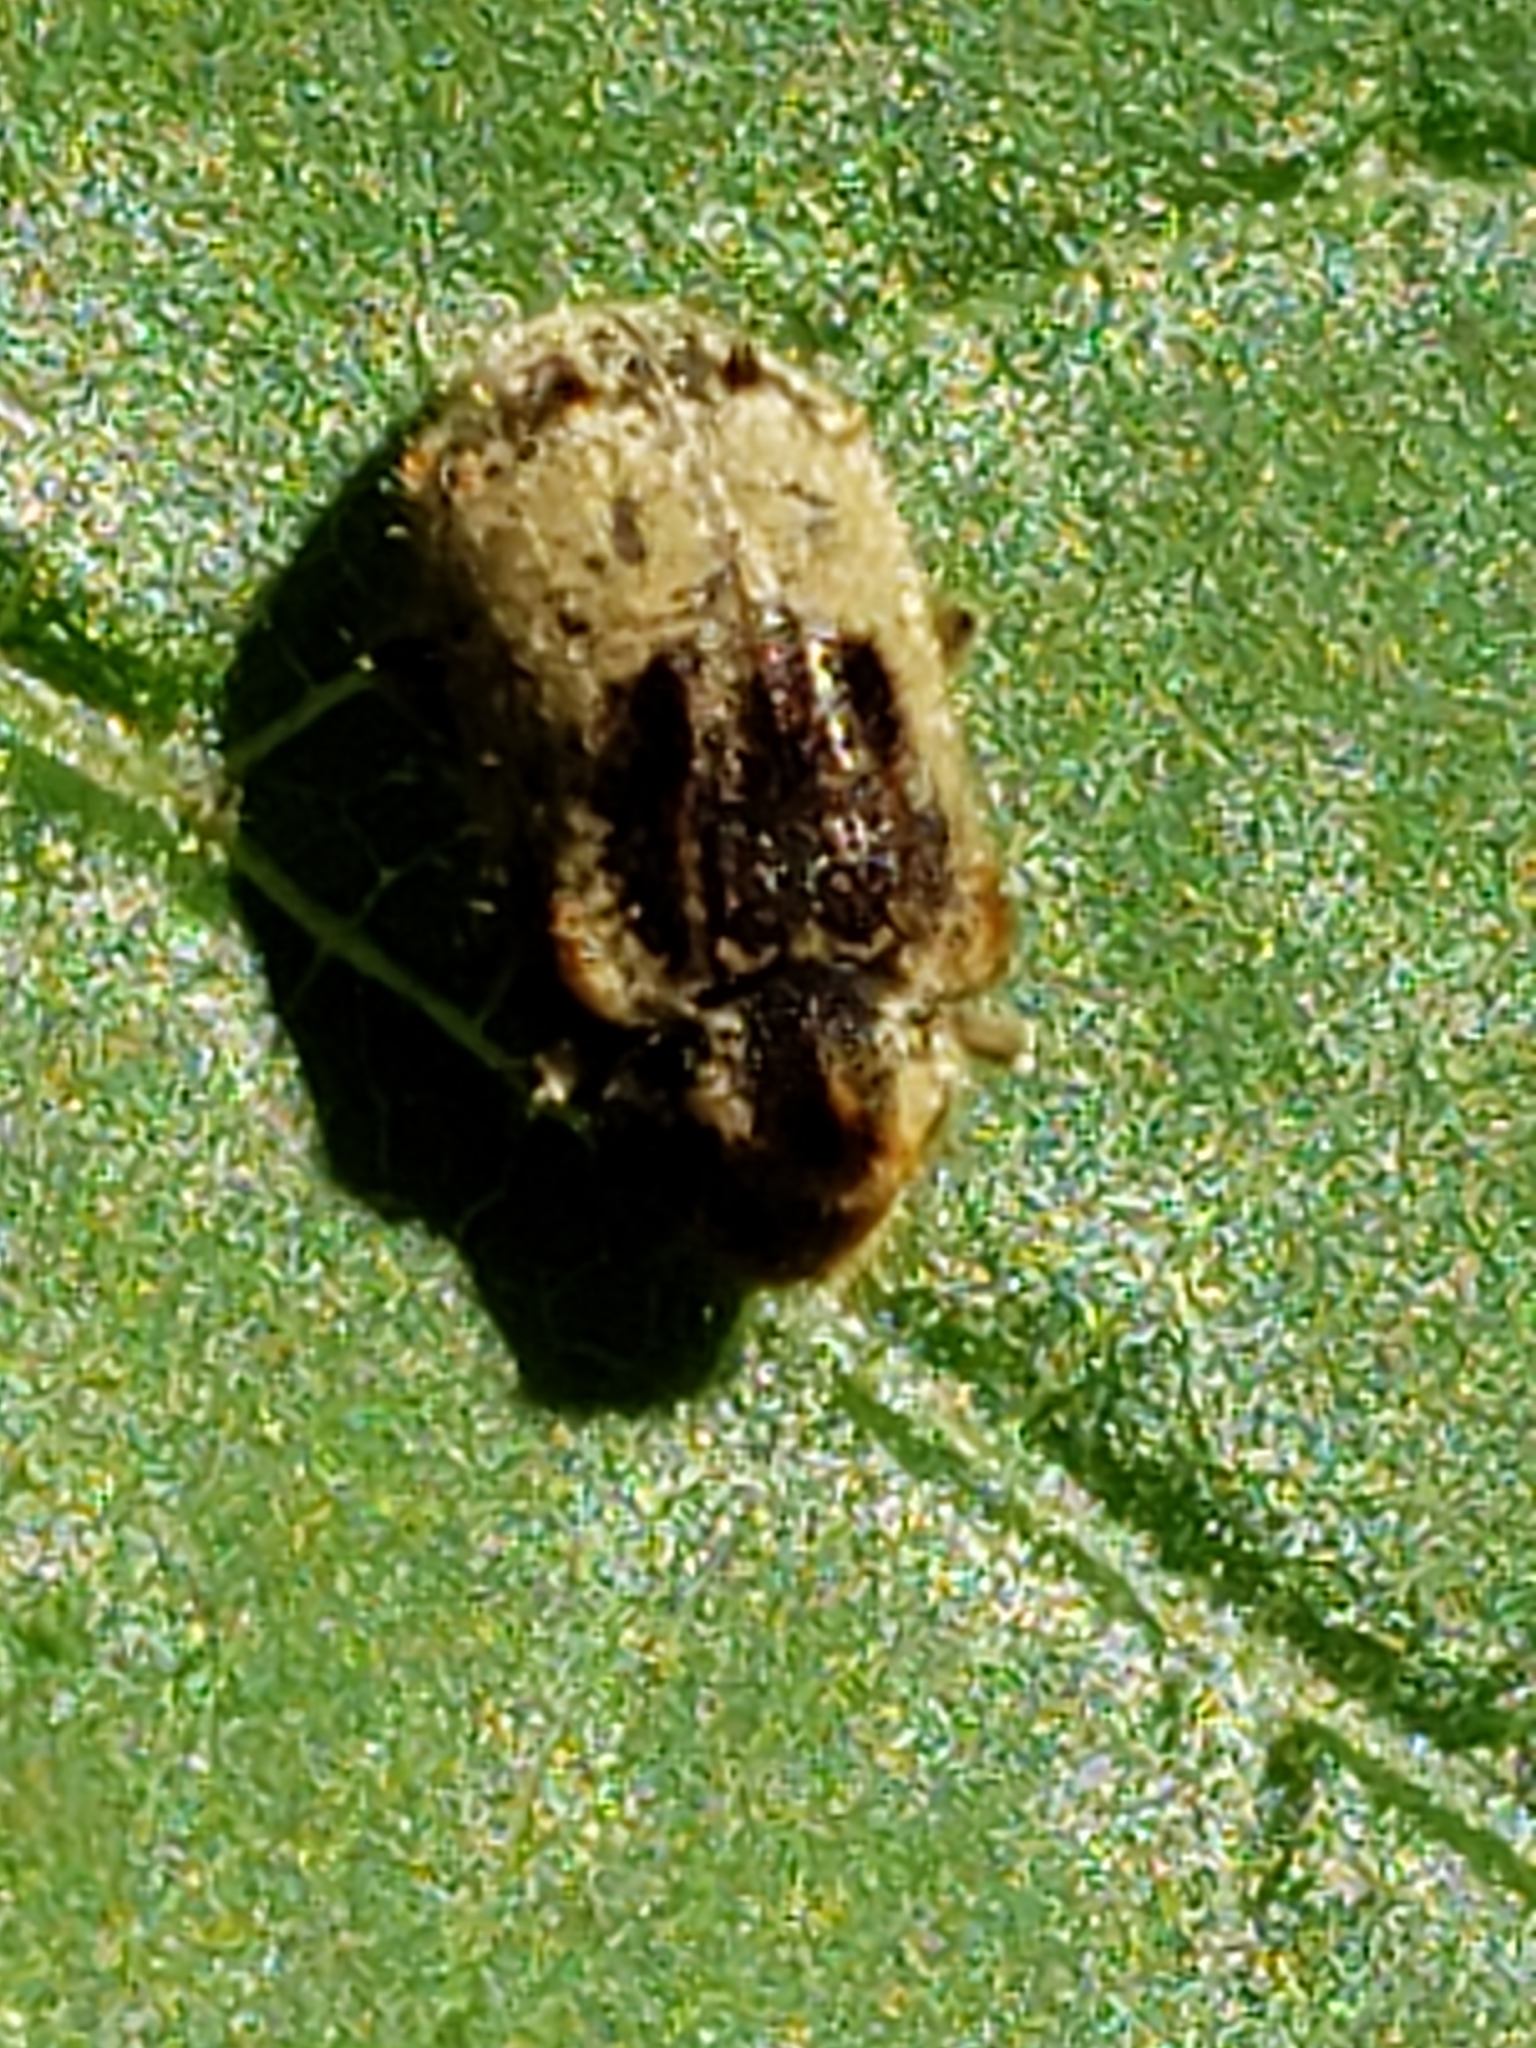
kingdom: Animalia
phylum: Arthropoda
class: Insecta
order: Coleoptera
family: Anobiidae
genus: Trichodesma
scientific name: Trichodesma gibbosa
